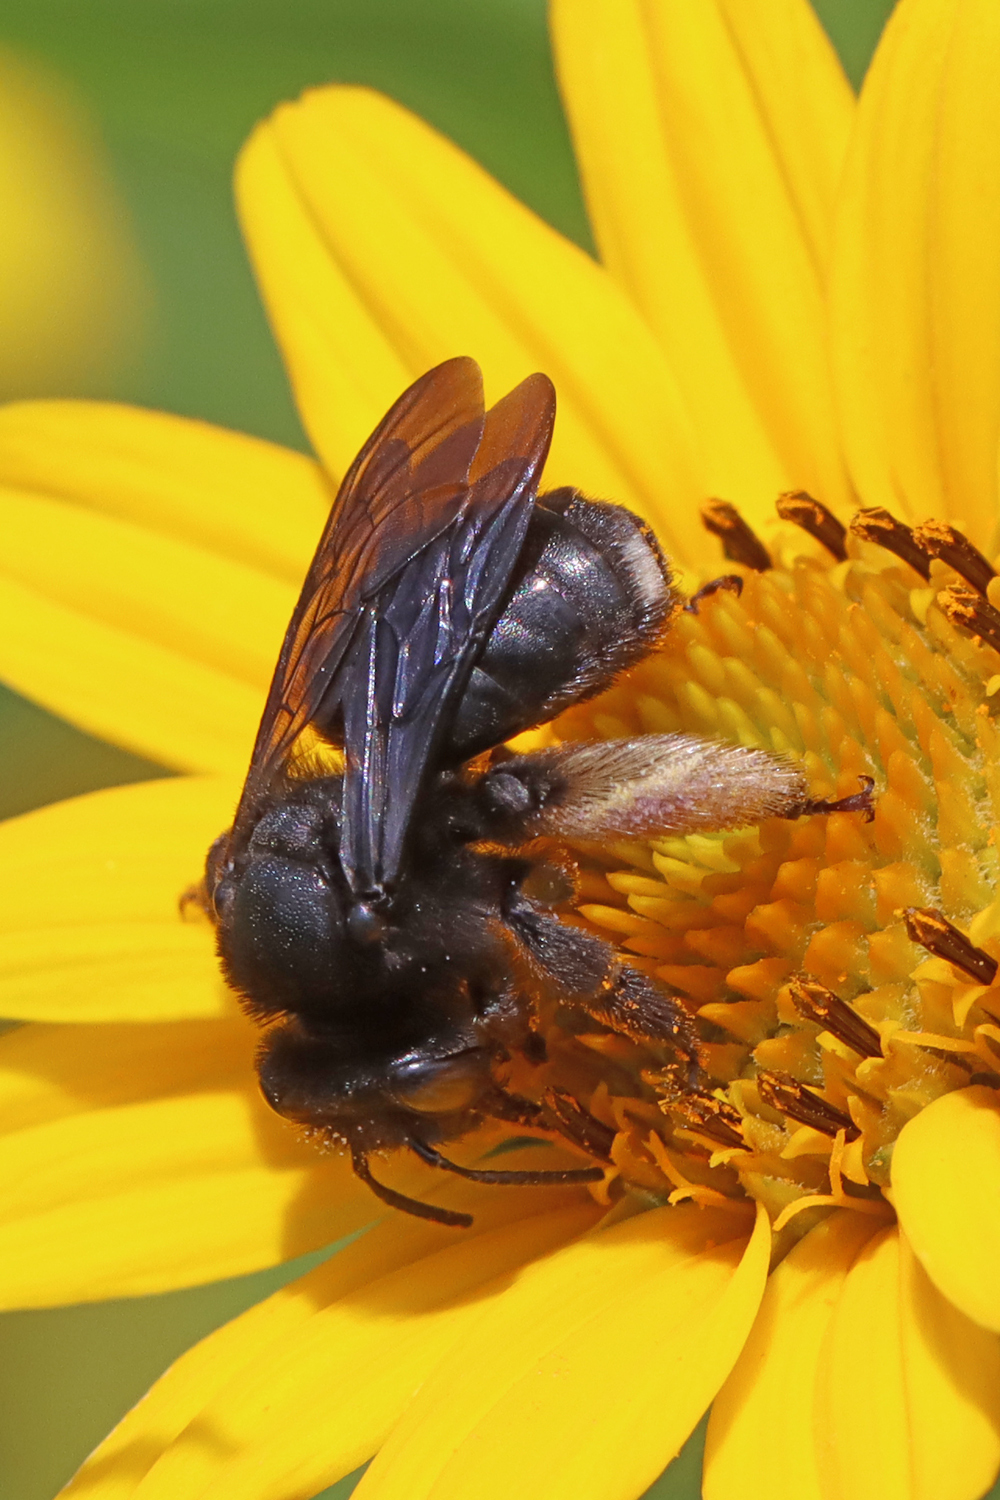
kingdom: Animalia
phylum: Arthropoda
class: Insecta
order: Hymenoptera
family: Apidae
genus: Melissodes
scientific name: Melissodes bimaculatus
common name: Two-spotted long-horned bee
